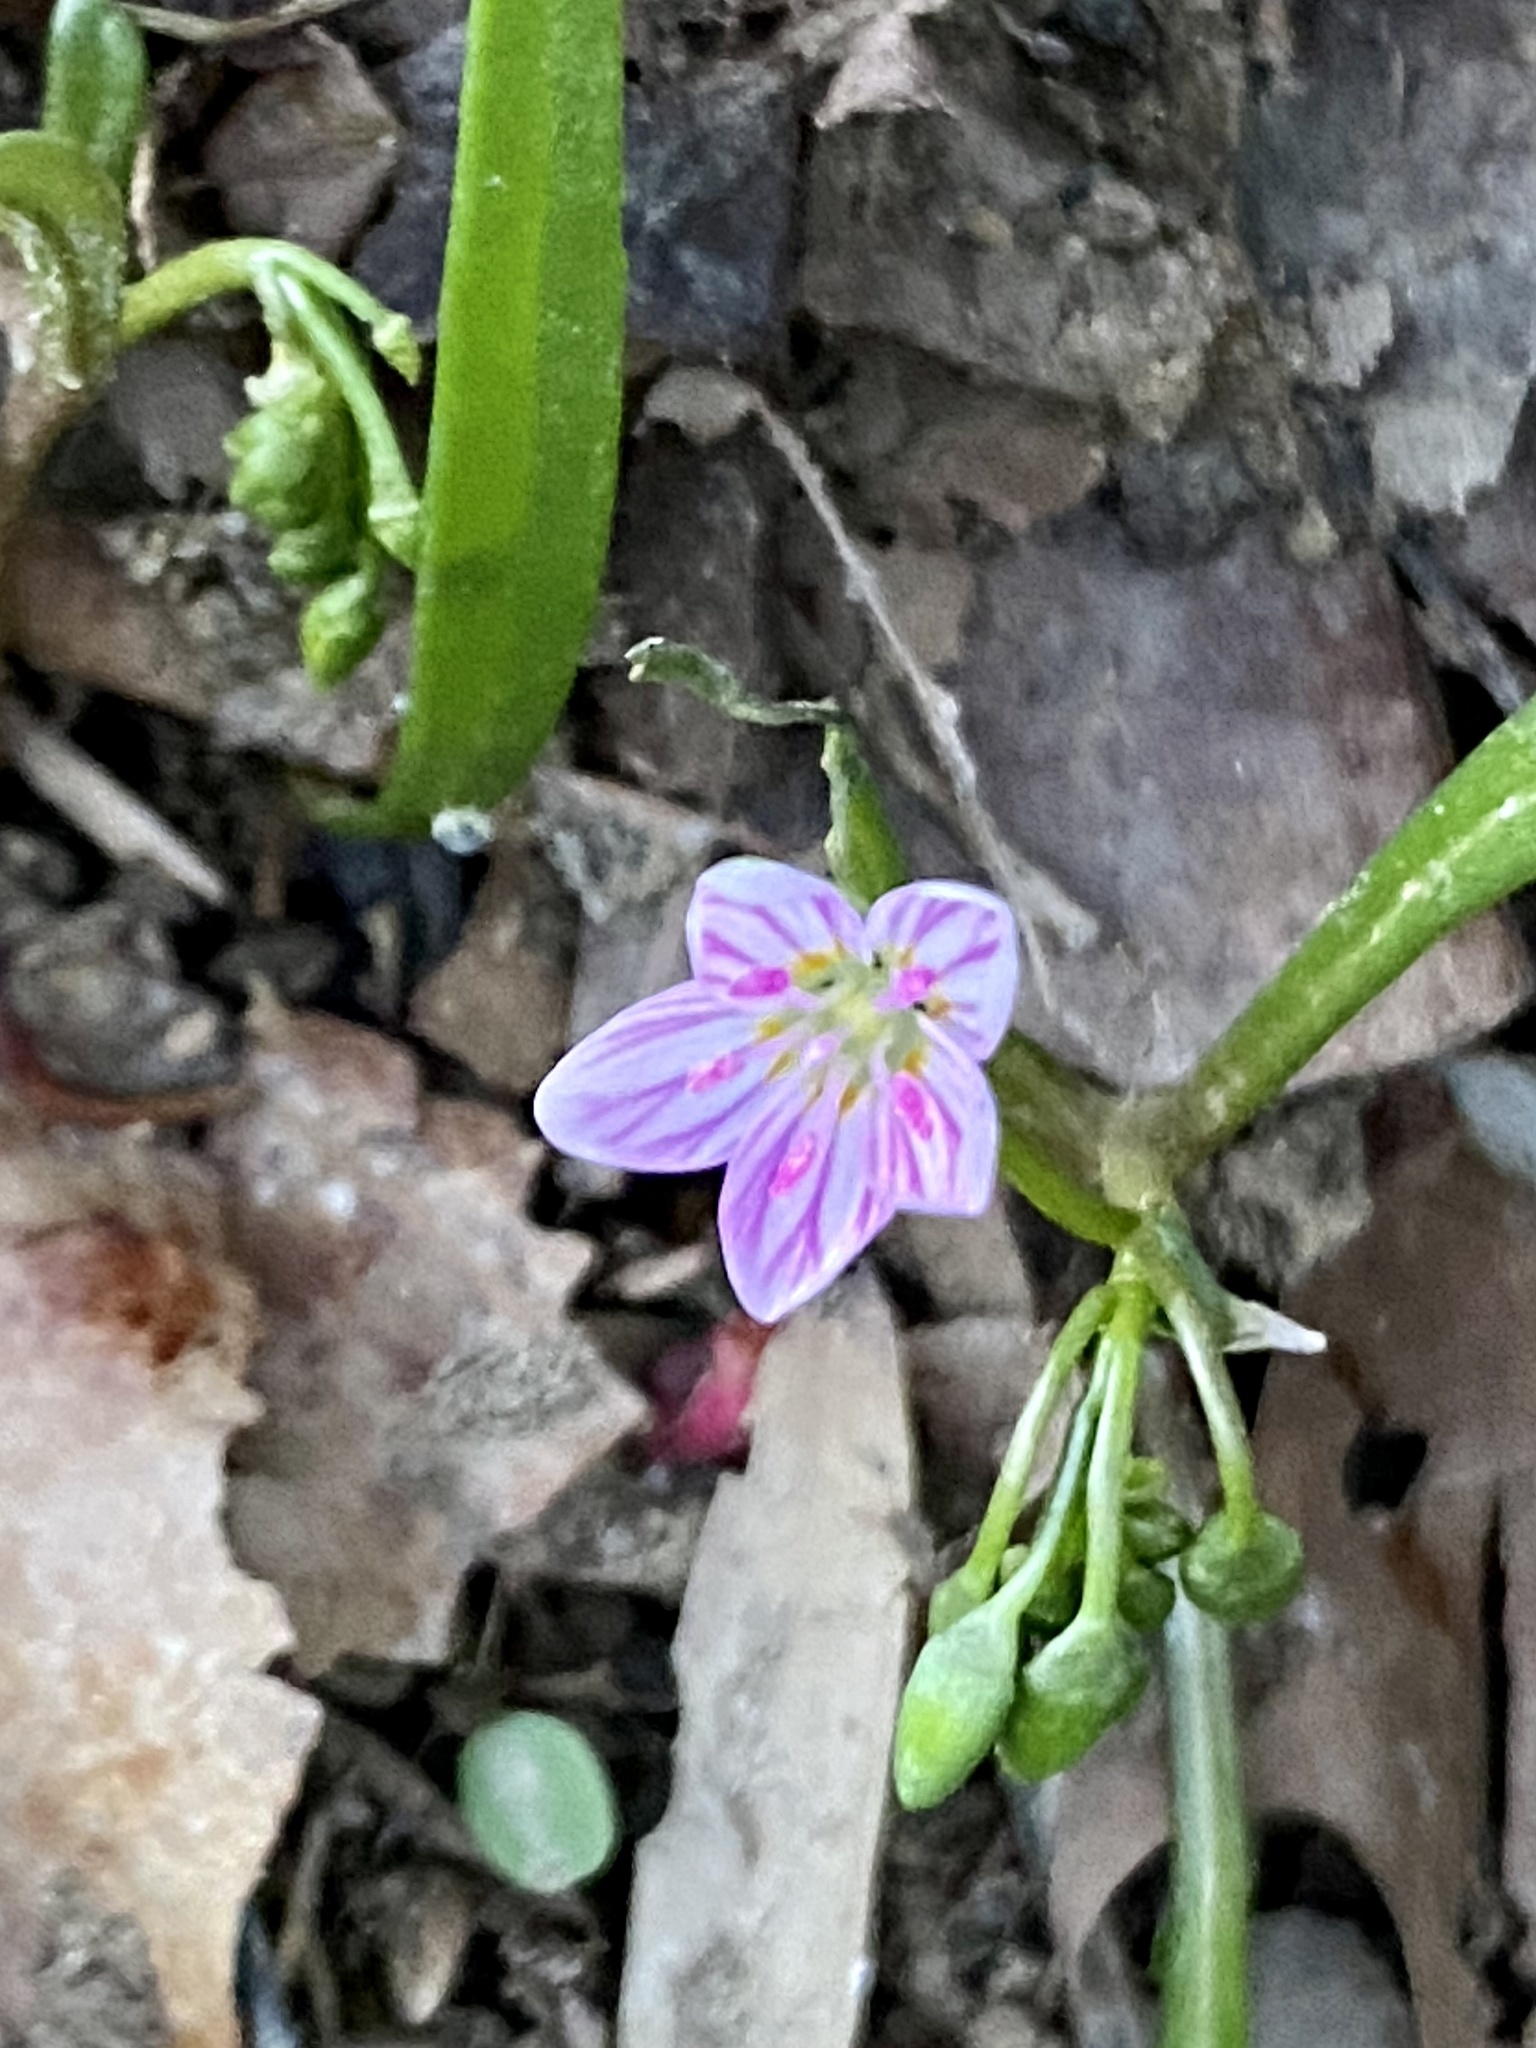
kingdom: Plantae
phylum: Tracheophyta
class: Magnoliopsida
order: Caryophyllales
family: Montiaceae
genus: Claytonia
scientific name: Claytonia virginica
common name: Virginia springbeauty
